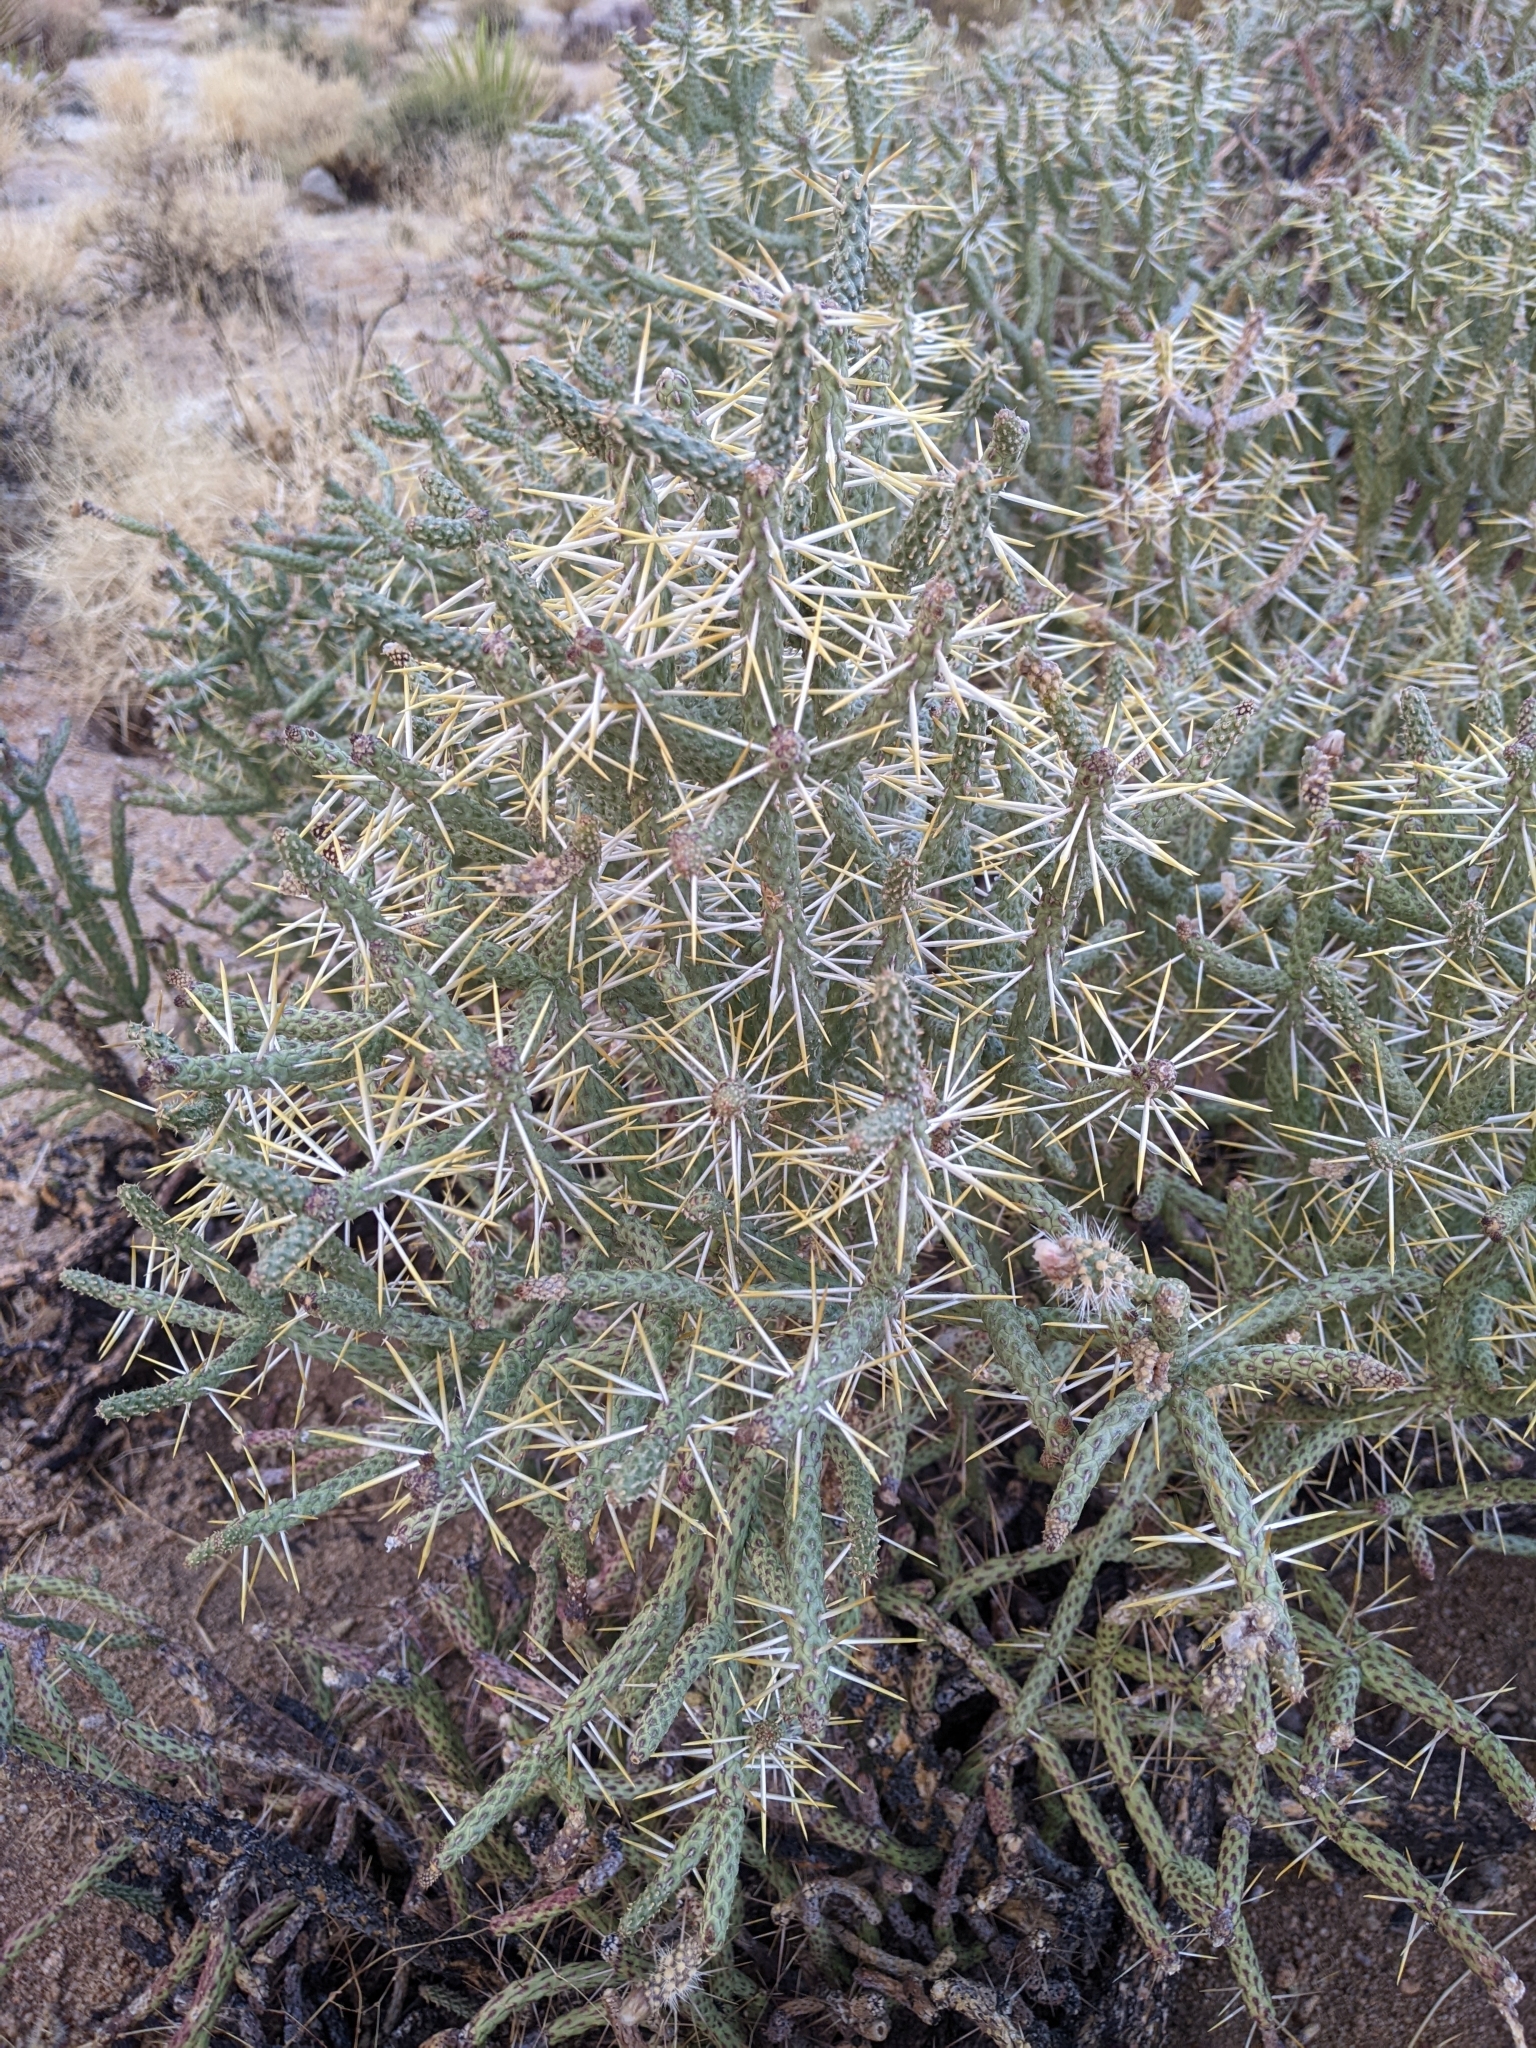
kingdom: Plantae
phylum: Tracheophyta
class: Magnoliopsida
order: Caryophyllales
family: Cactaceae
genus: Cylindropuntia
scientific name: Cylindropuntia ramosissima
